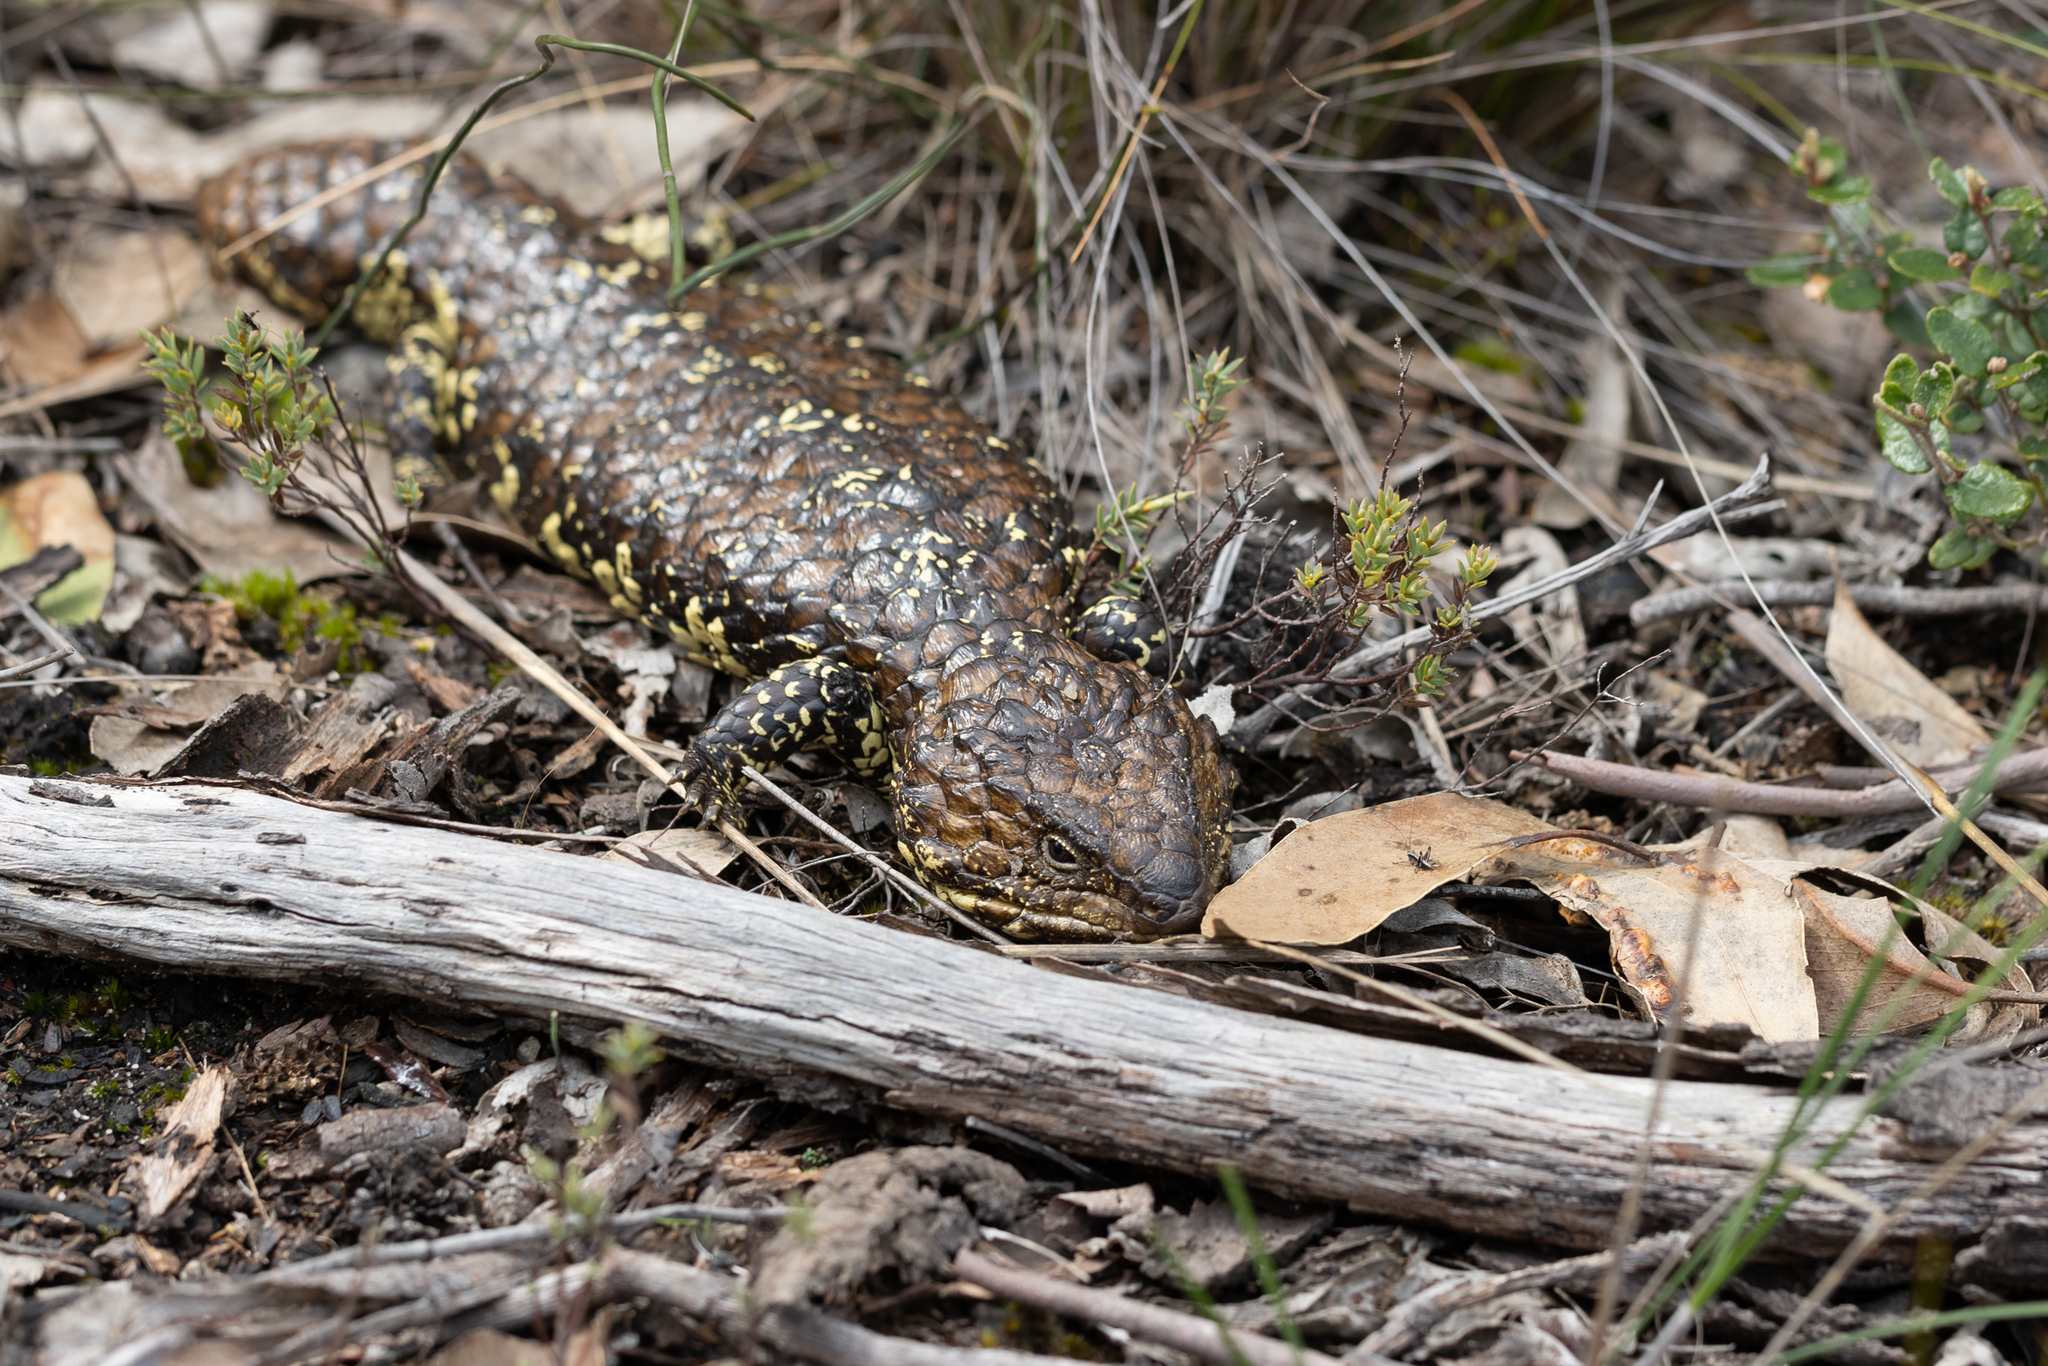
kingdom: Animalia
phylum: Chordata
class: Squamata
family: Scincidae
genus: Tiliqua
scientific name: Tiliqua rugosa
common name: Pinecone lizard
